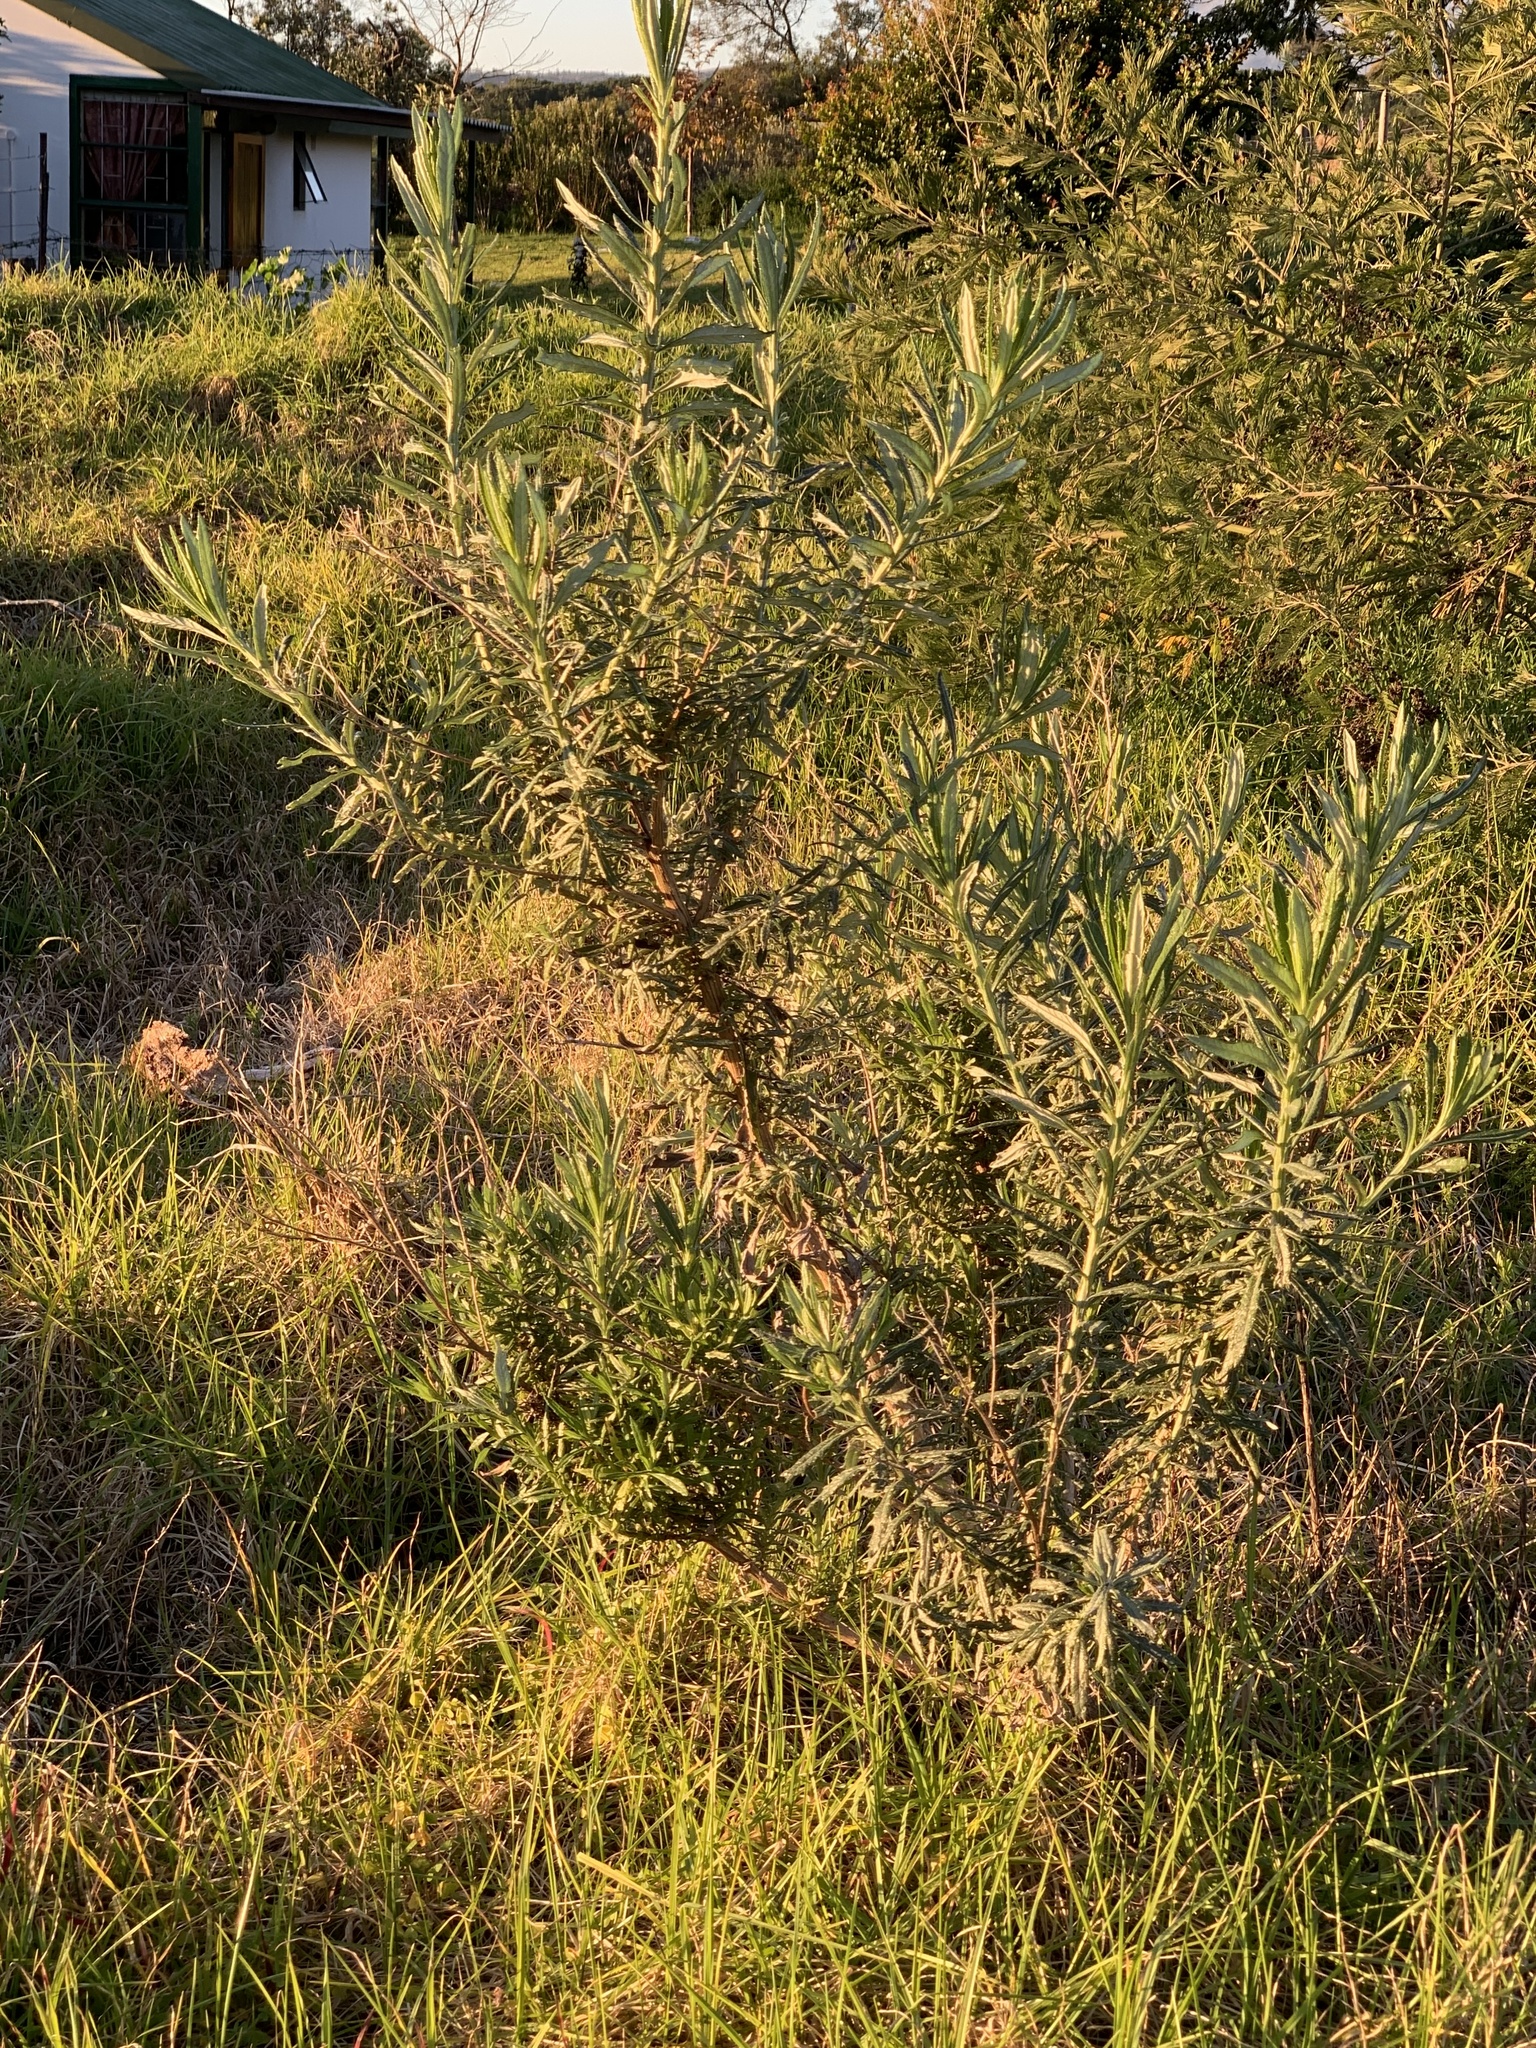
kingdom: Plantae
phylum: Tracheophyta
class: Magnoliopsida
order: Asterales
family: Asteraceae
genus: Senecio
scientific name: Senecio pterophorus
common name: Shoddy ragwort
